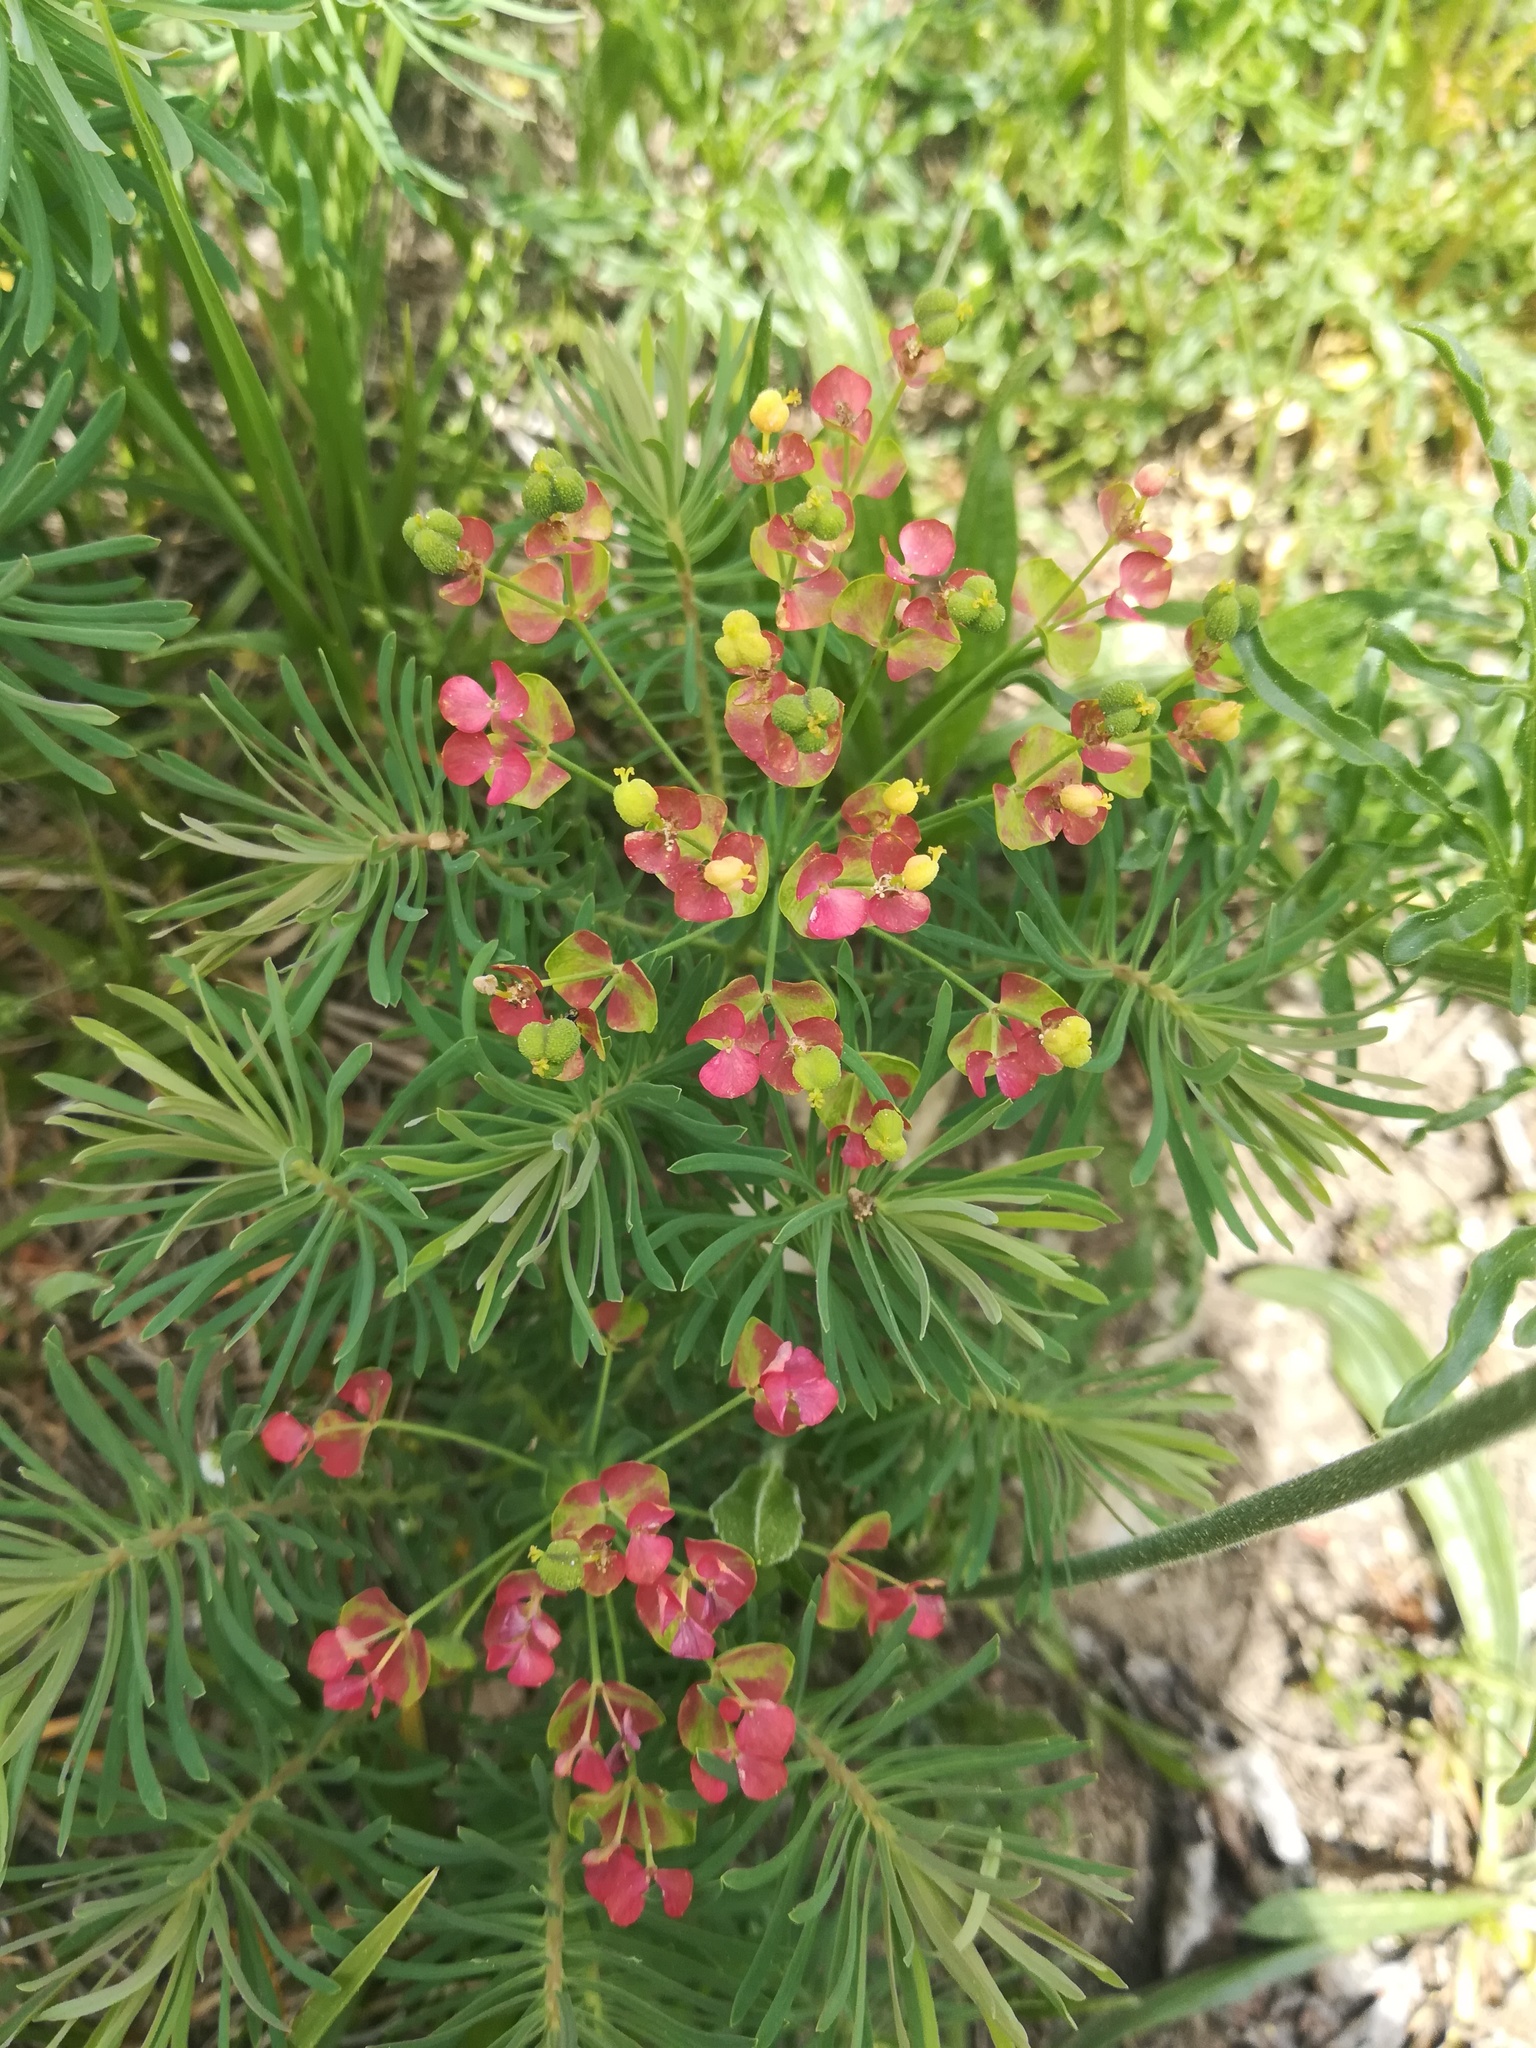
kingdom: Plantae
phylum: Tracheophyta
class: Magnoliopsida
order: Malpighiales
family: Euphorbiaceae
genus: Euphorbia
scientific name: Euphorbia cyparissias
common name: Cypress spurge
